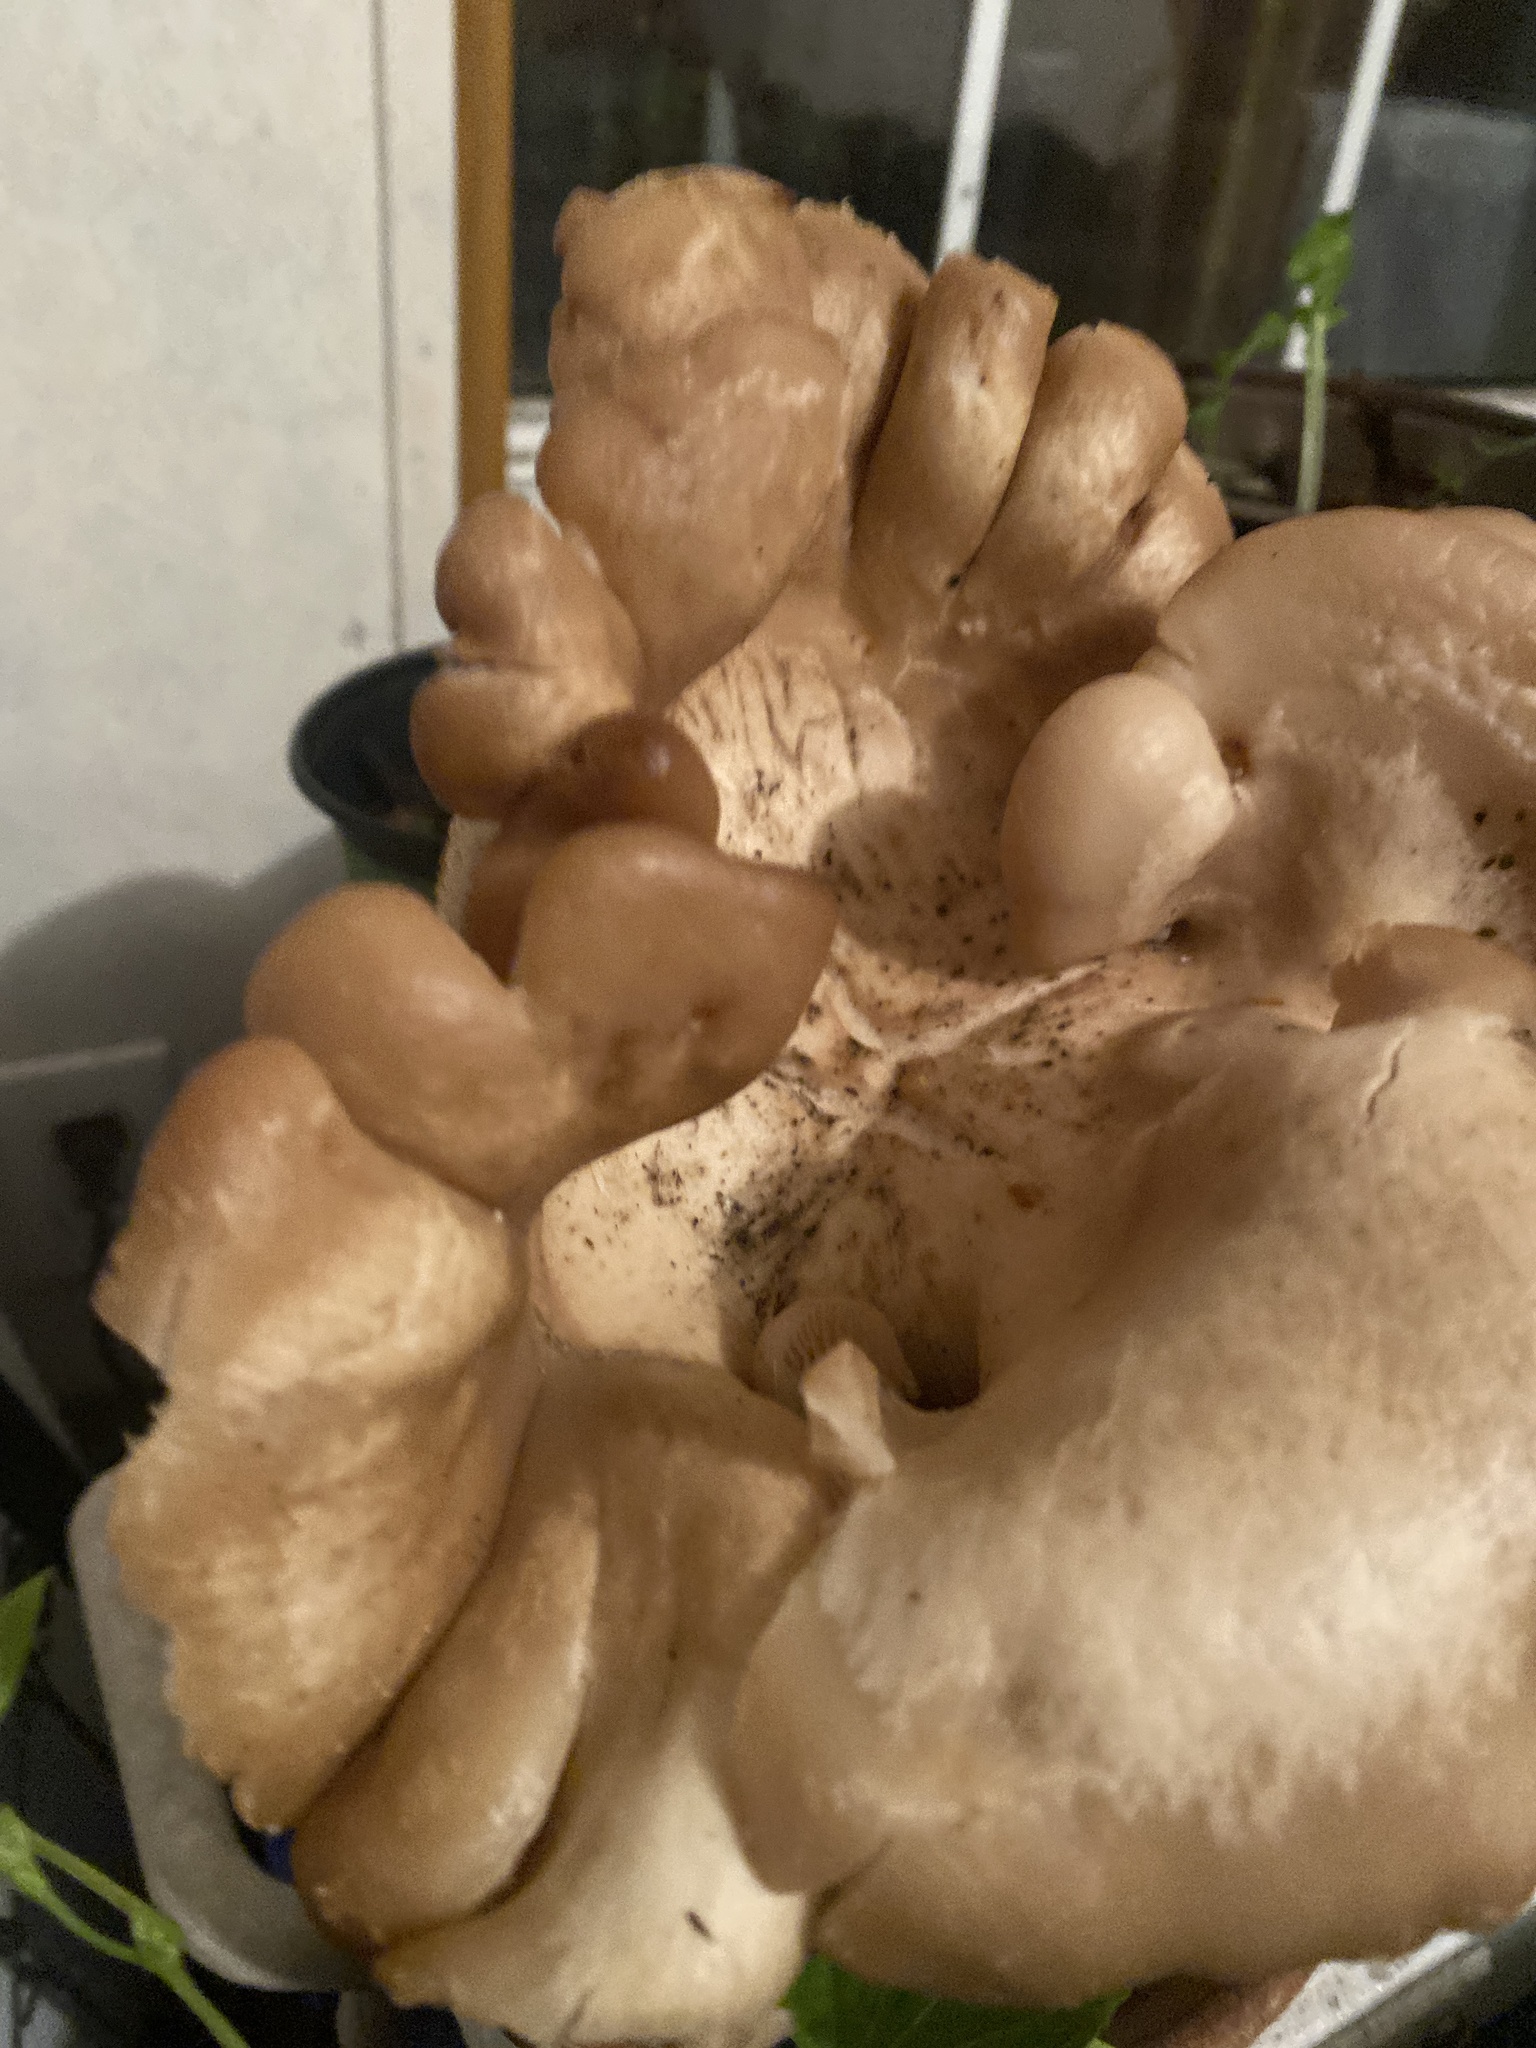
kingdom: Fungi
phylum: Basidiomycota
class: Agaricomycetes
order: Agaricales
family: Pleurotaceae
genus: Pleurotus
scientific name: Pleurotus ostreatus
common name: Oyster mushroom
